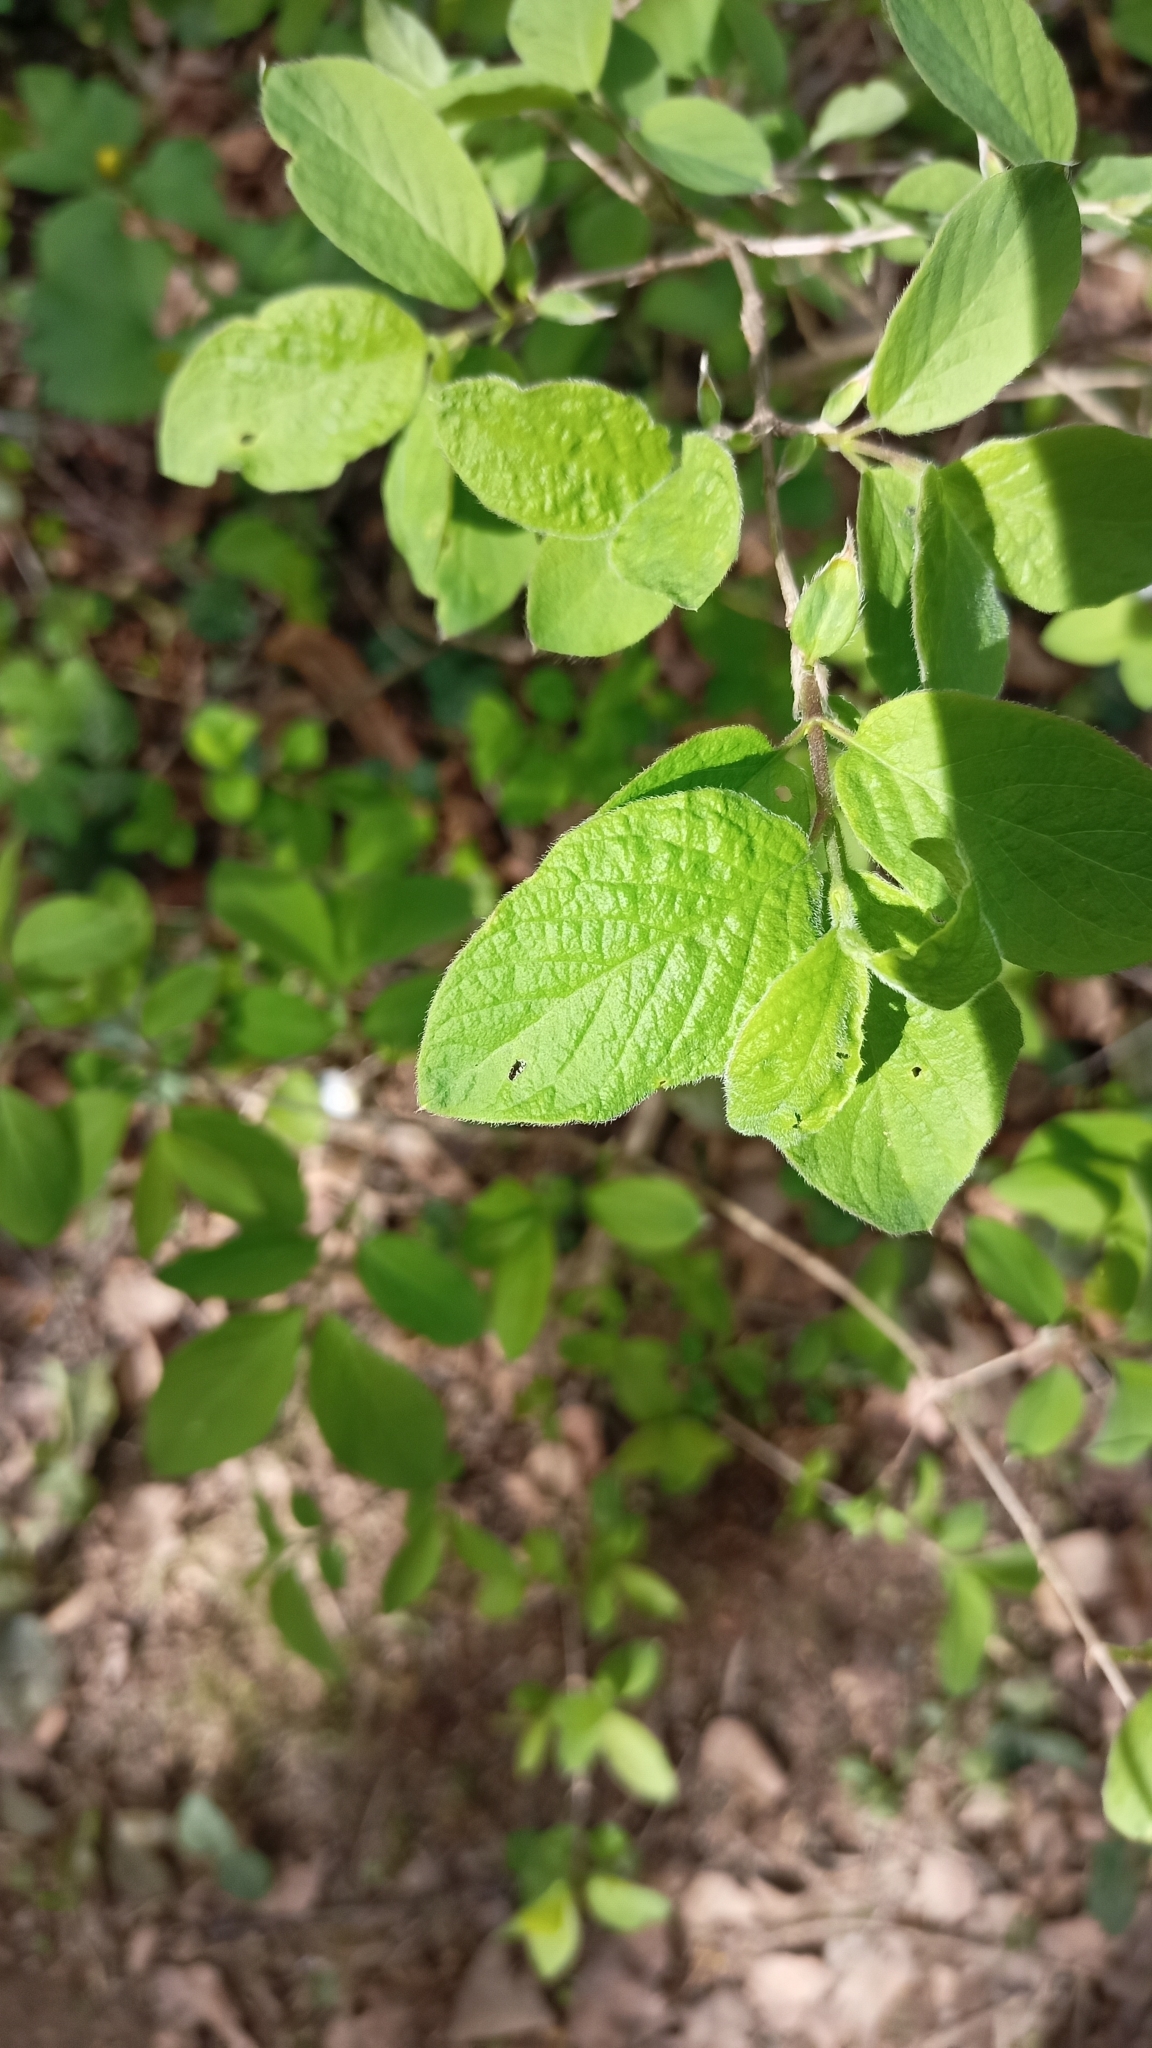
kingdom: Plantae
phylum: Tracheophyta
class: Magnoliopsida
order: Dipsacales
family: Caprifoliaceae
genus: Lonicera
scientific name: Lonicera xylosteum
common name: Fly honeysuckle
